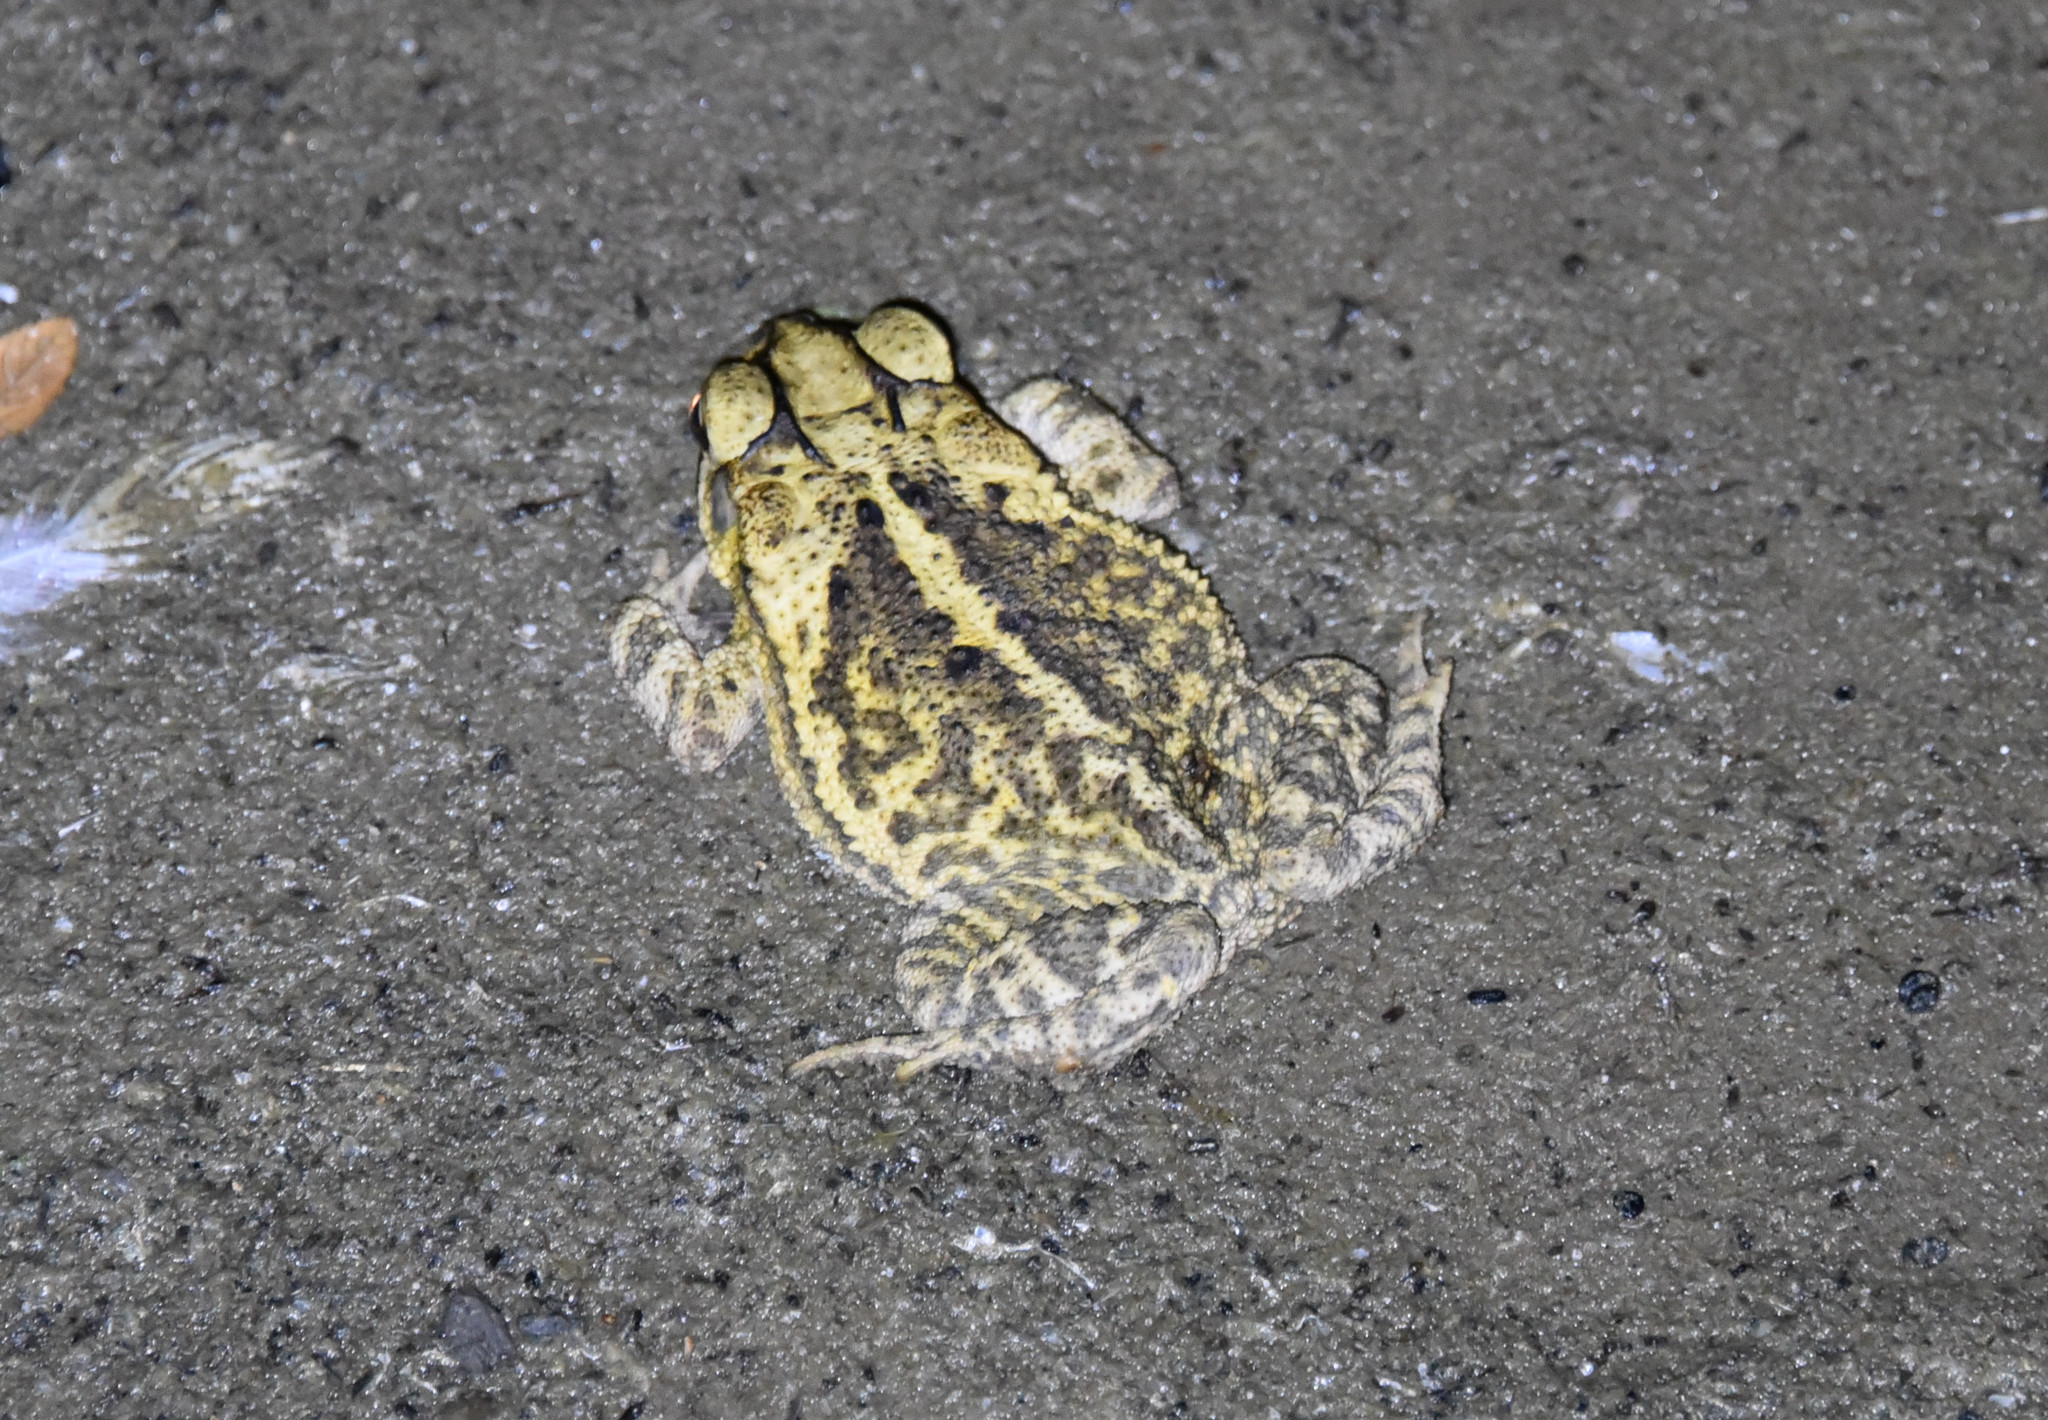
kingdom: Animalia
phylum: Chordata
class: Amphibia
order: Anura
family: Bufonidae
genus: Incilius
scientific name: Incilius nebulifer
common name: Gulf coast toad
